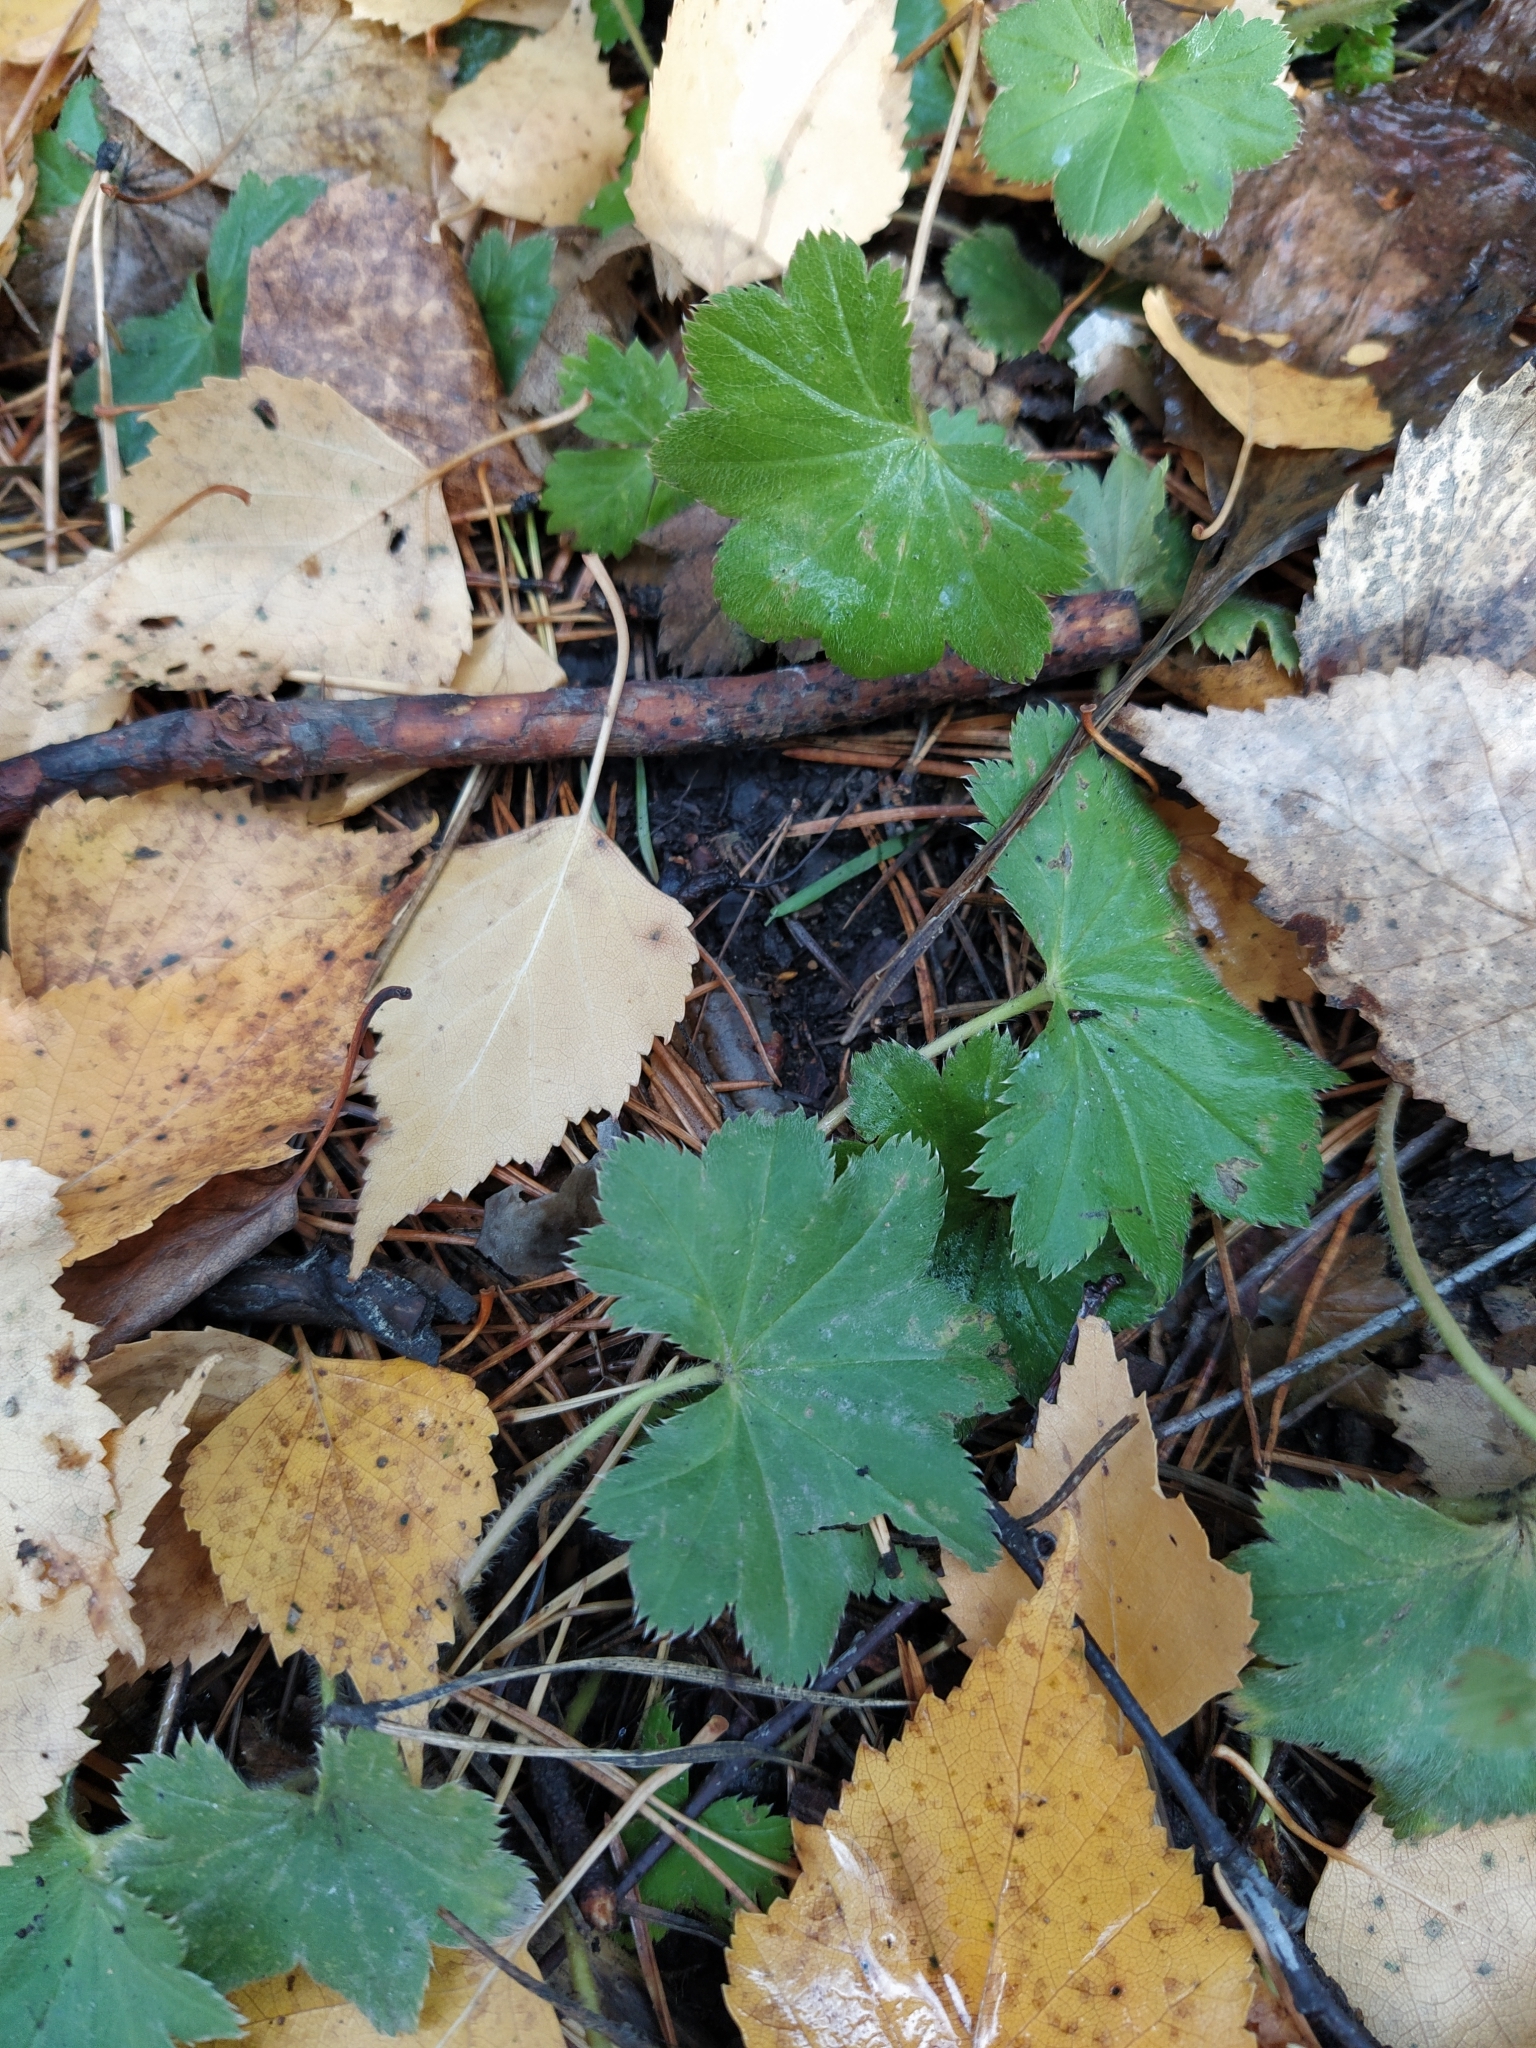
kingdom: Plantae
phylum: Tracheophyta
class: Magnoliopsida
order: Rosales
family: Rosaceae
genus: Alchemilla
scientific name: Alchemilla
